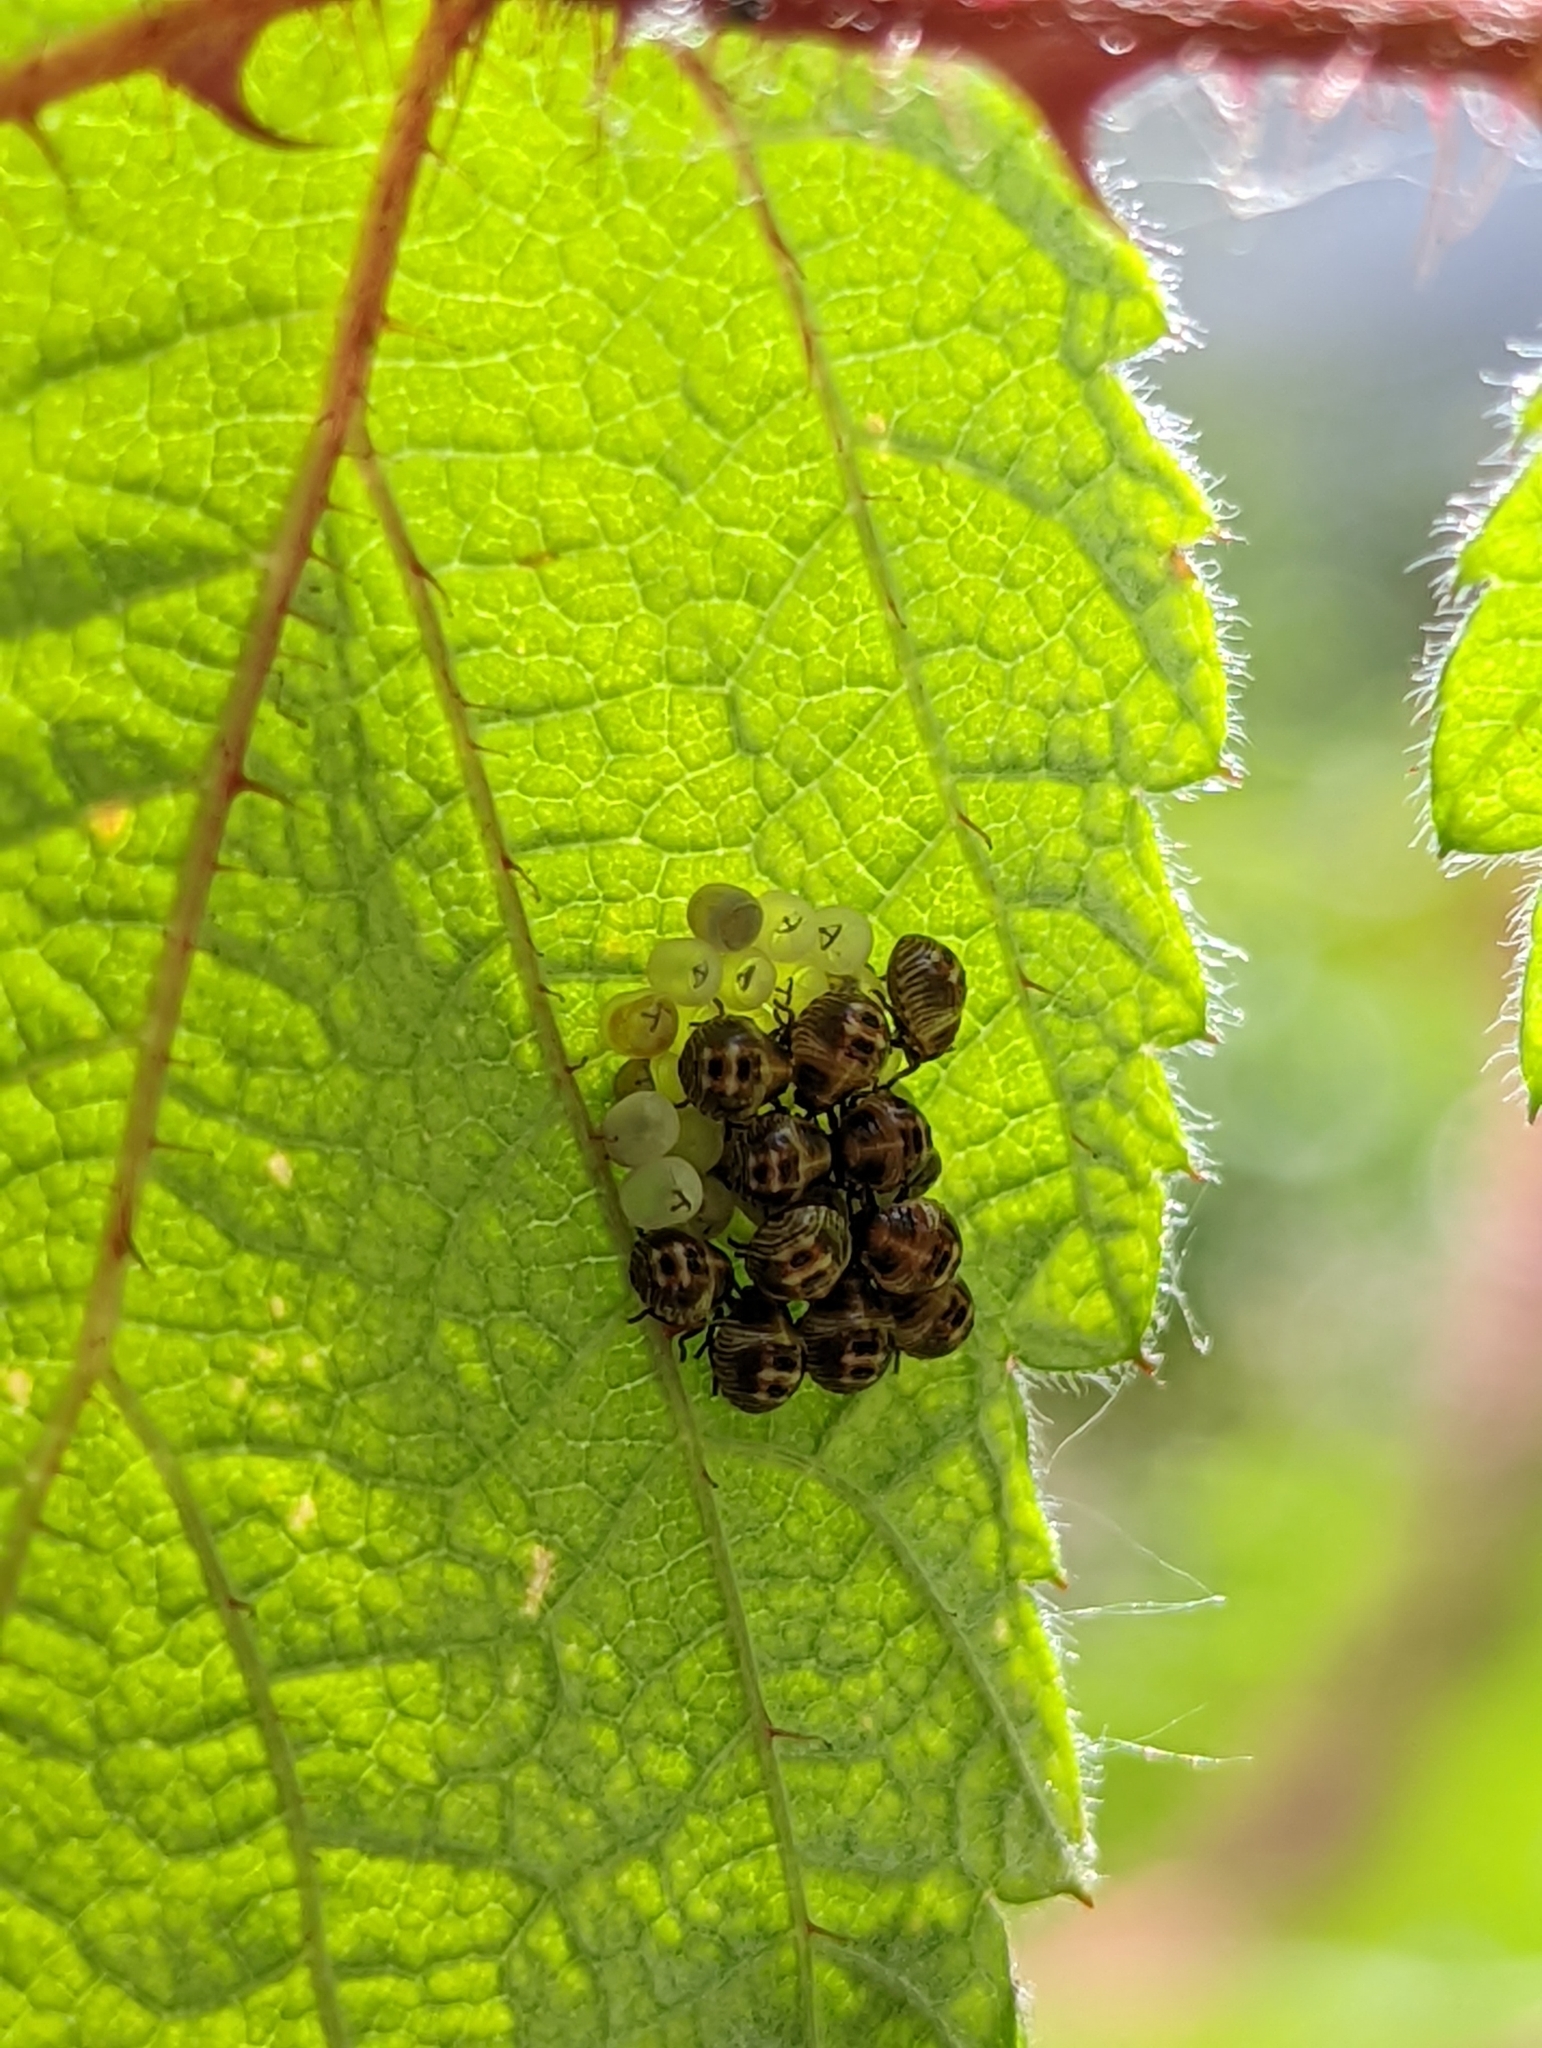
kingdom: Animalia
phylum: Arthropoda
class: Insecta
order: Hemiptera
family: Pentatomidae
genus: Palomena
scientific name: Palomena prasina
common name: Green shieldbug
